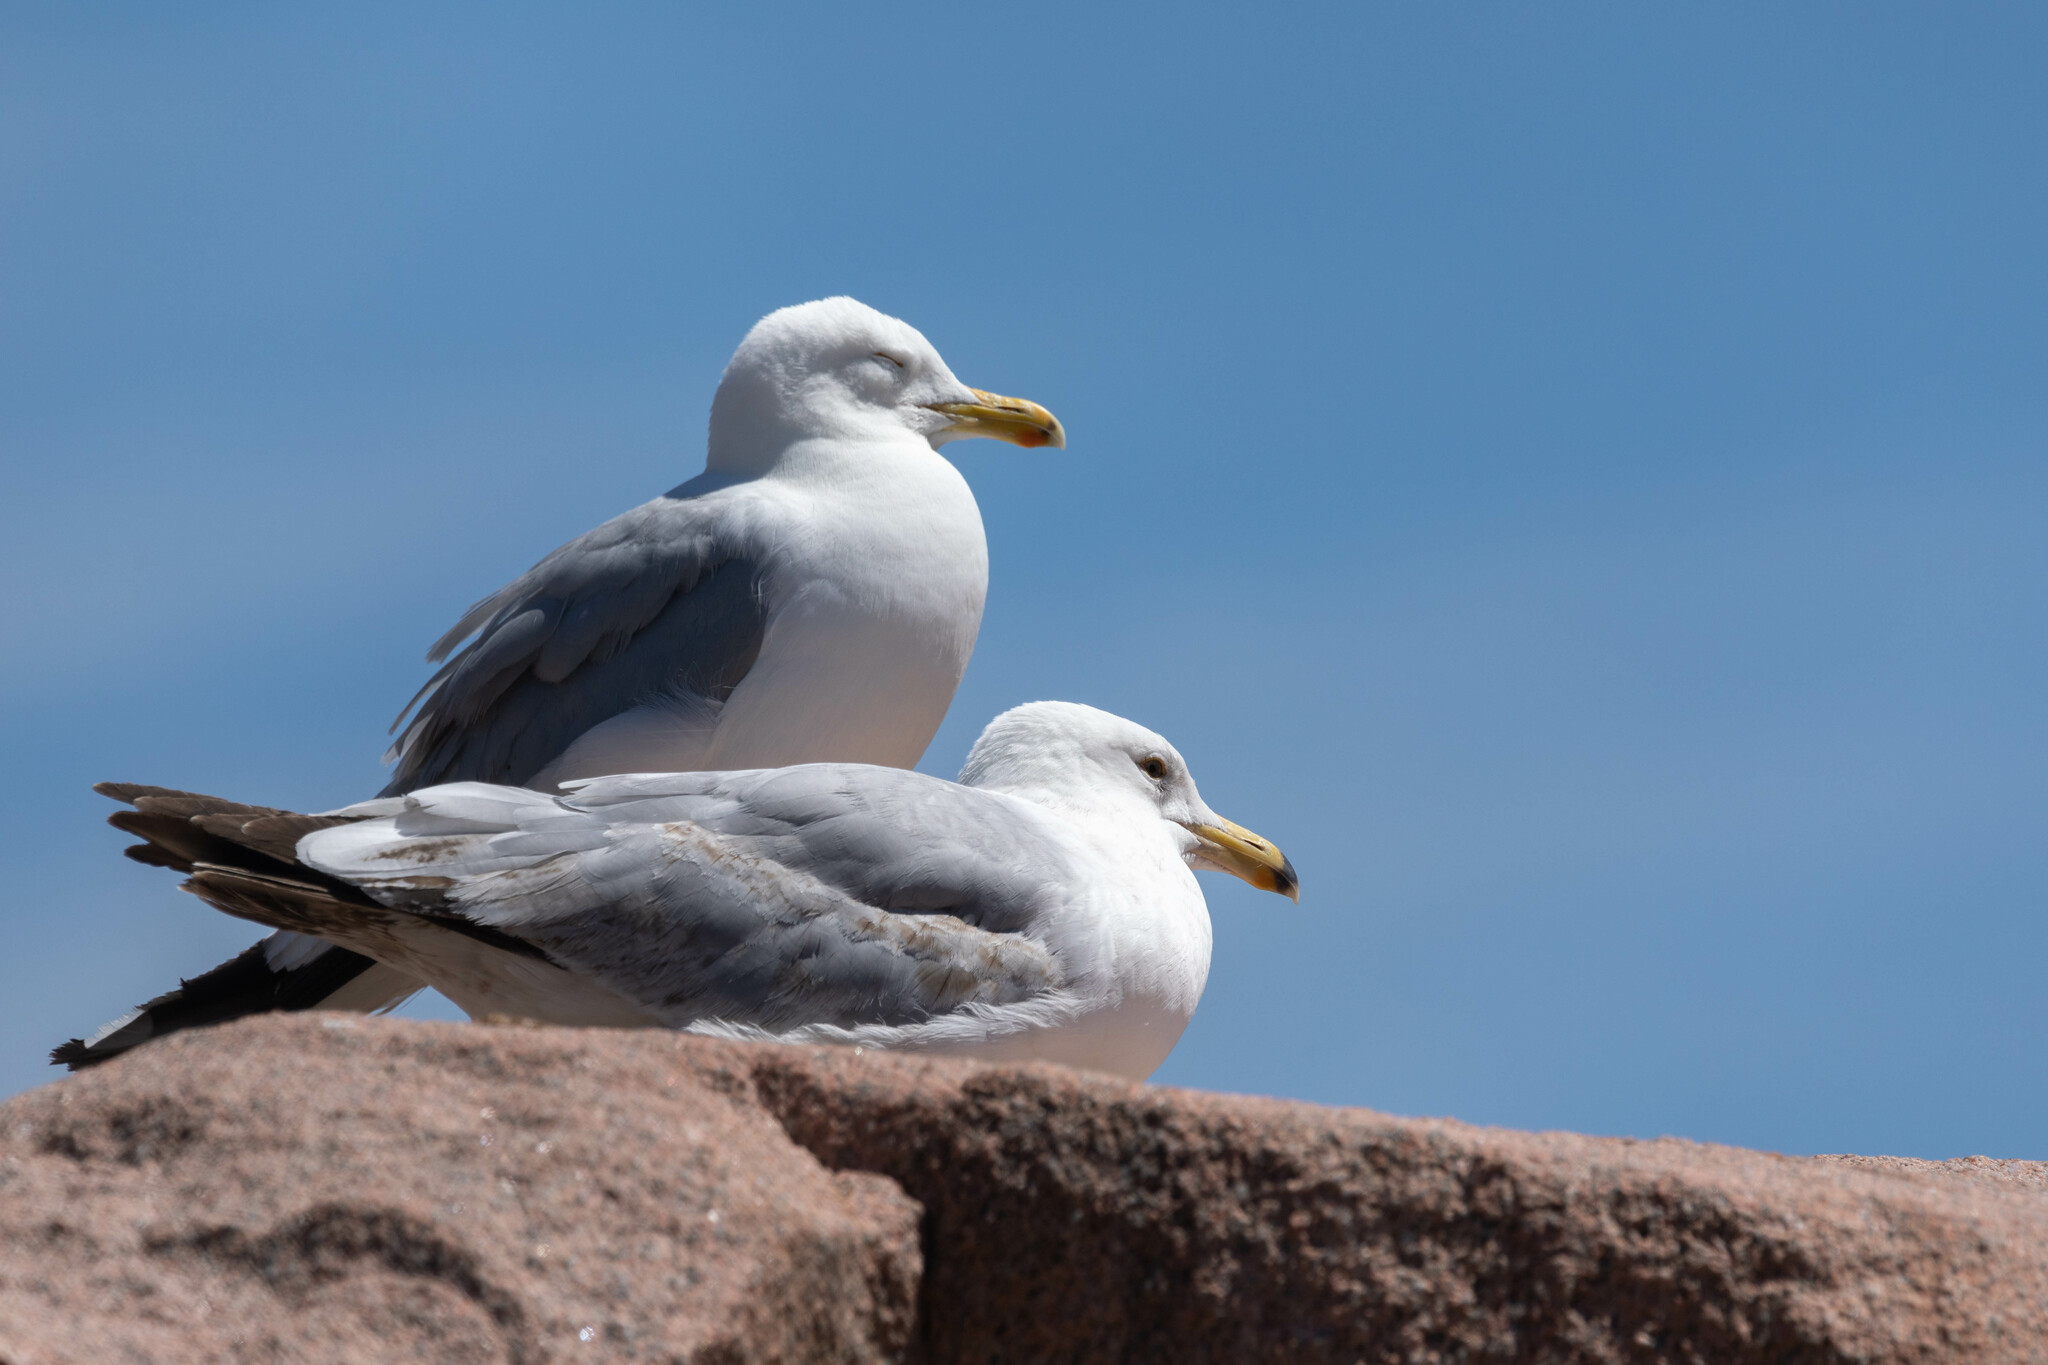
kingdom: Animalia
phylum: Chordata
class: Aves
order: Charadriiformes
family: Laridae
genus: Larus
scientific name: Larus argentatus
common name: Herring gull
